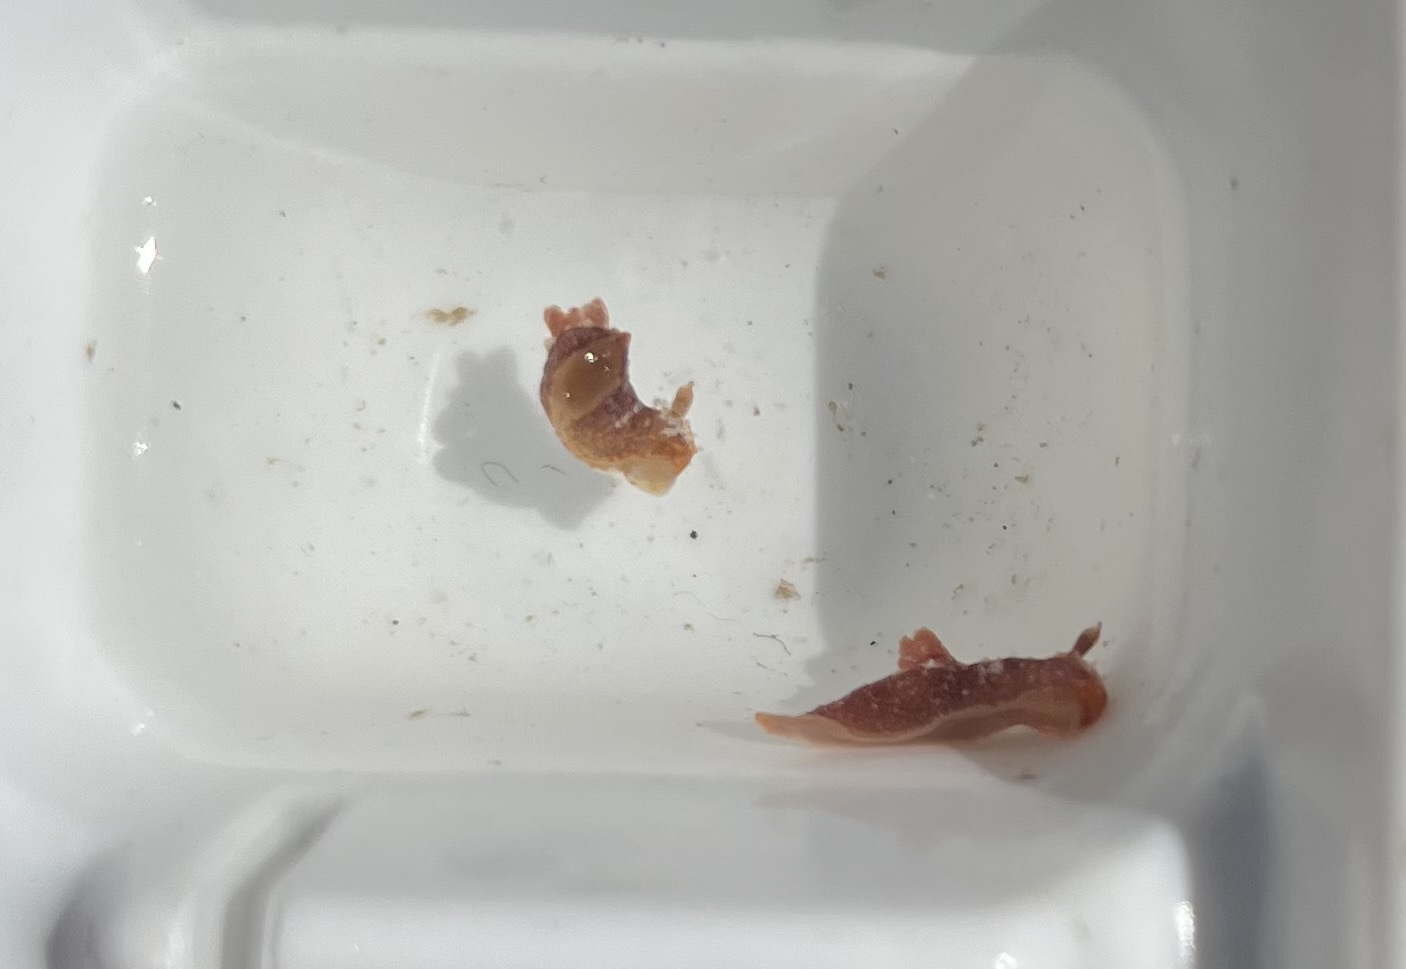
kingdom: Animalia
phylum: Mollusca
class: Gastropoda
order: Nudibranchia
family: Polyceridae
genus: Polycera
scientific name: Polycera parvula
